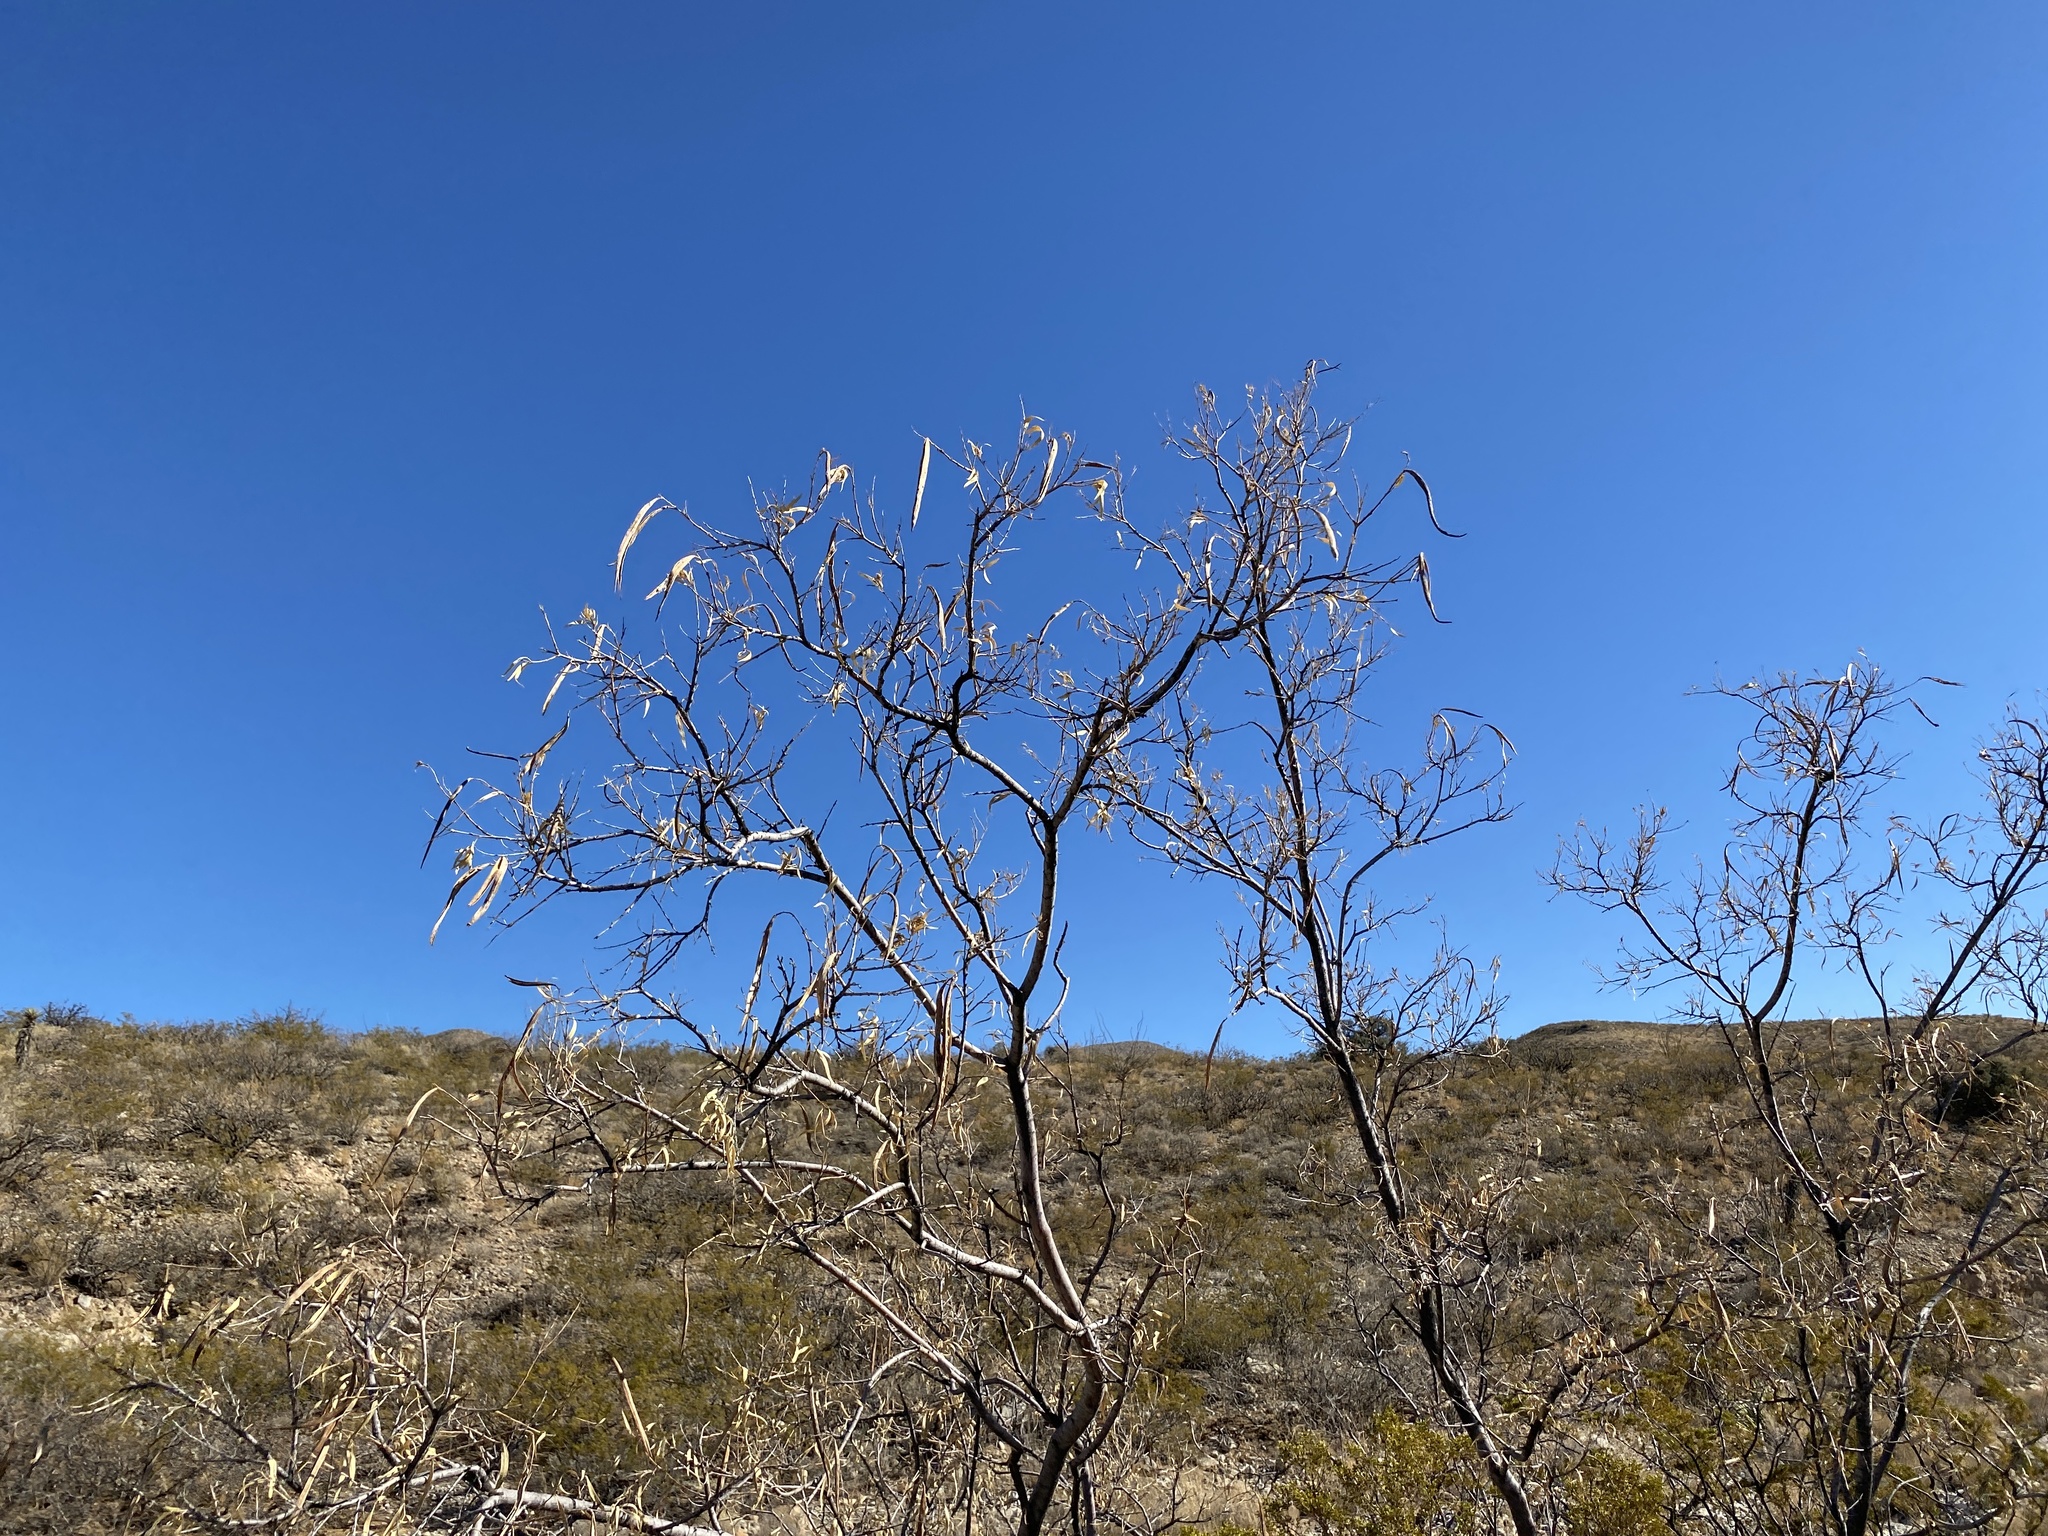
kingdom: Plantae
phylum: Tracheophyta
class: Magnoliopsida
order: Lamiales
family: Bignoniaceae
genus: Chilopsis
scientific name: Chilopsis linearis
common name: Desert-willow
